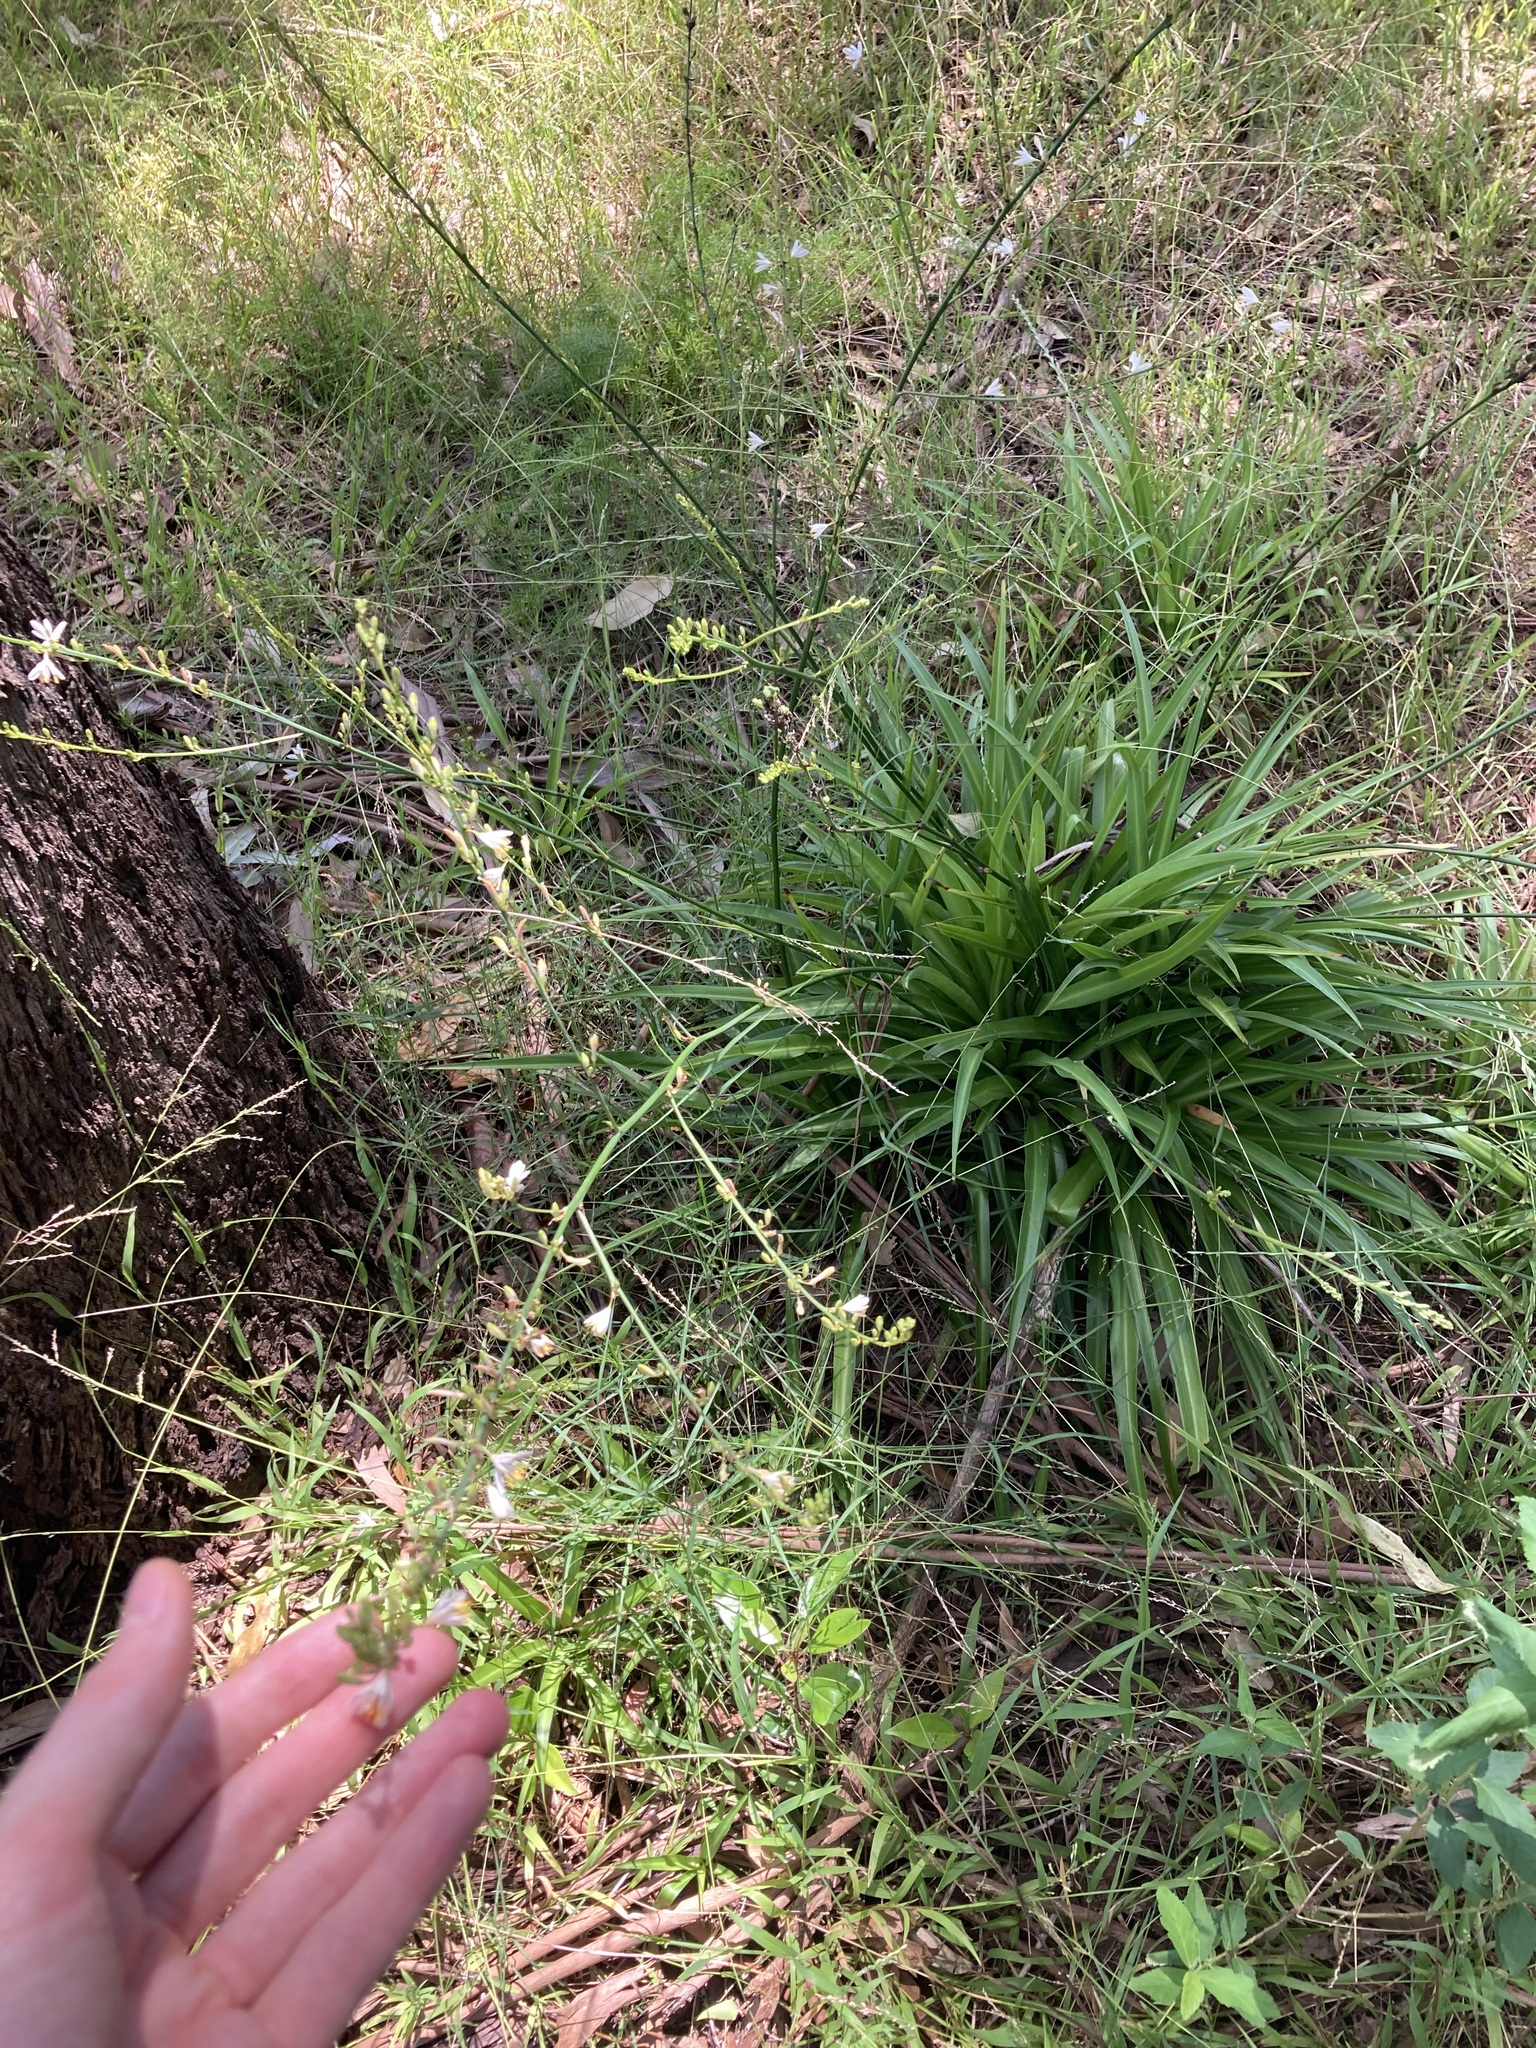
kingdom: Plantae
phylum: Tracheophyta
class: Liliopsida
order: Asparagales
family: Asparagaceae
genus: Chlorophytum
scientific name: Chlorophytum comosum
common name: Spider plant
